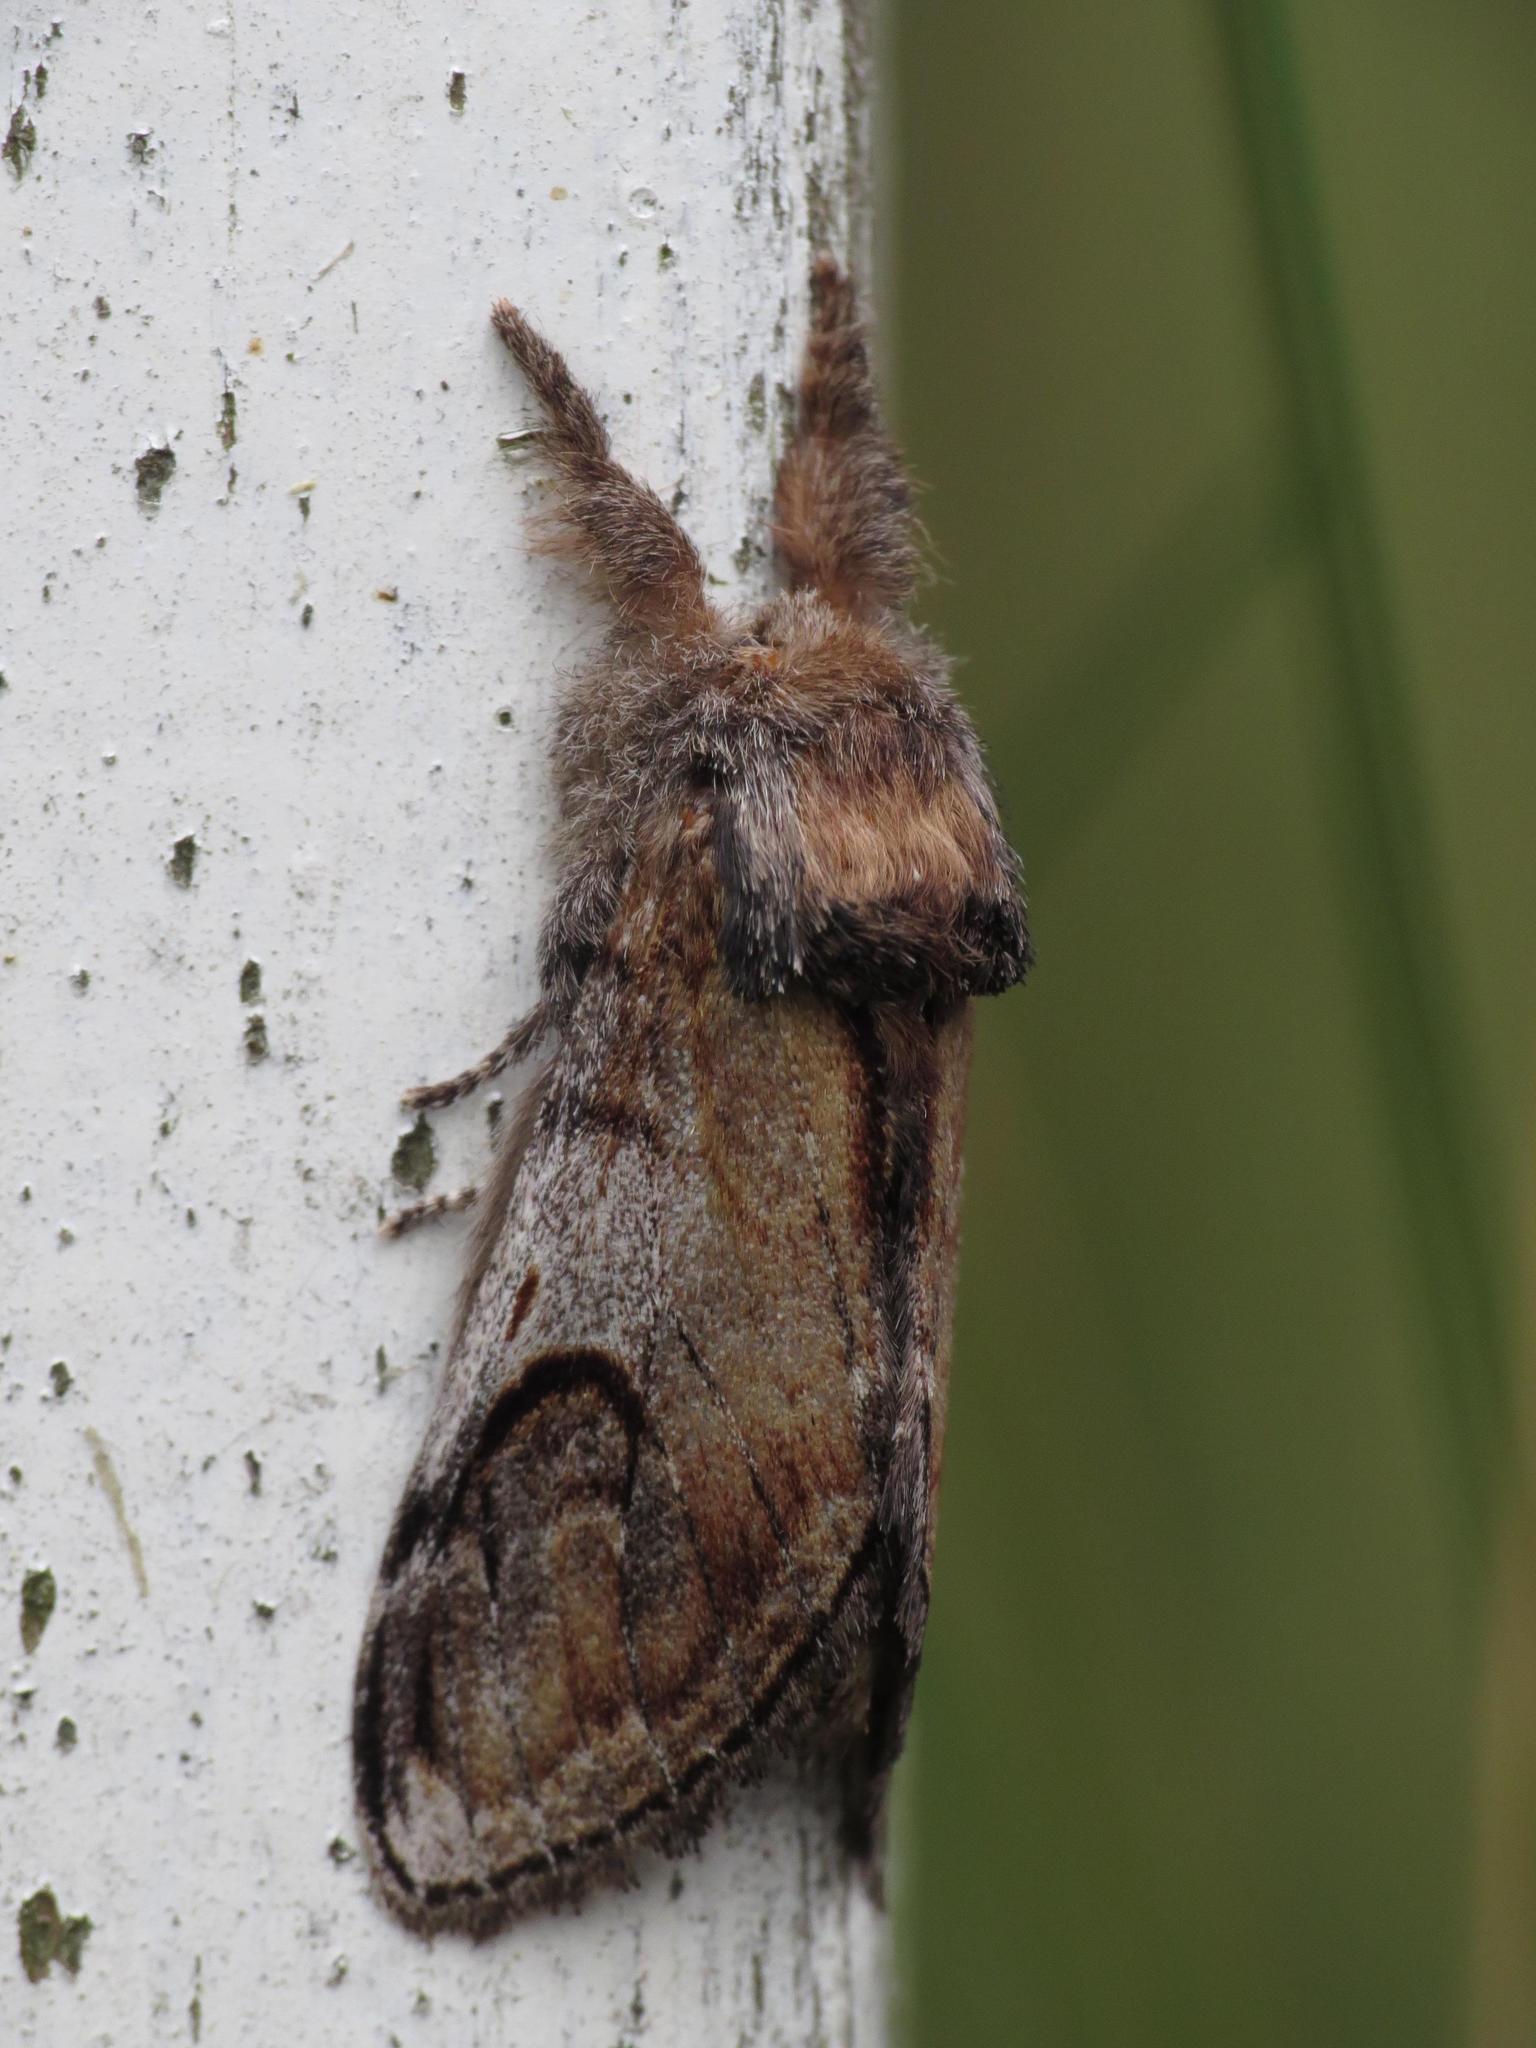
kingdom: Animalia
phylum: Arthropoda
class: Insecta
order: Lepidoptera
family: Notodontidae
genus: Notodonta
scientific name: Notodonta ziczac
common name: Pebble prominent
